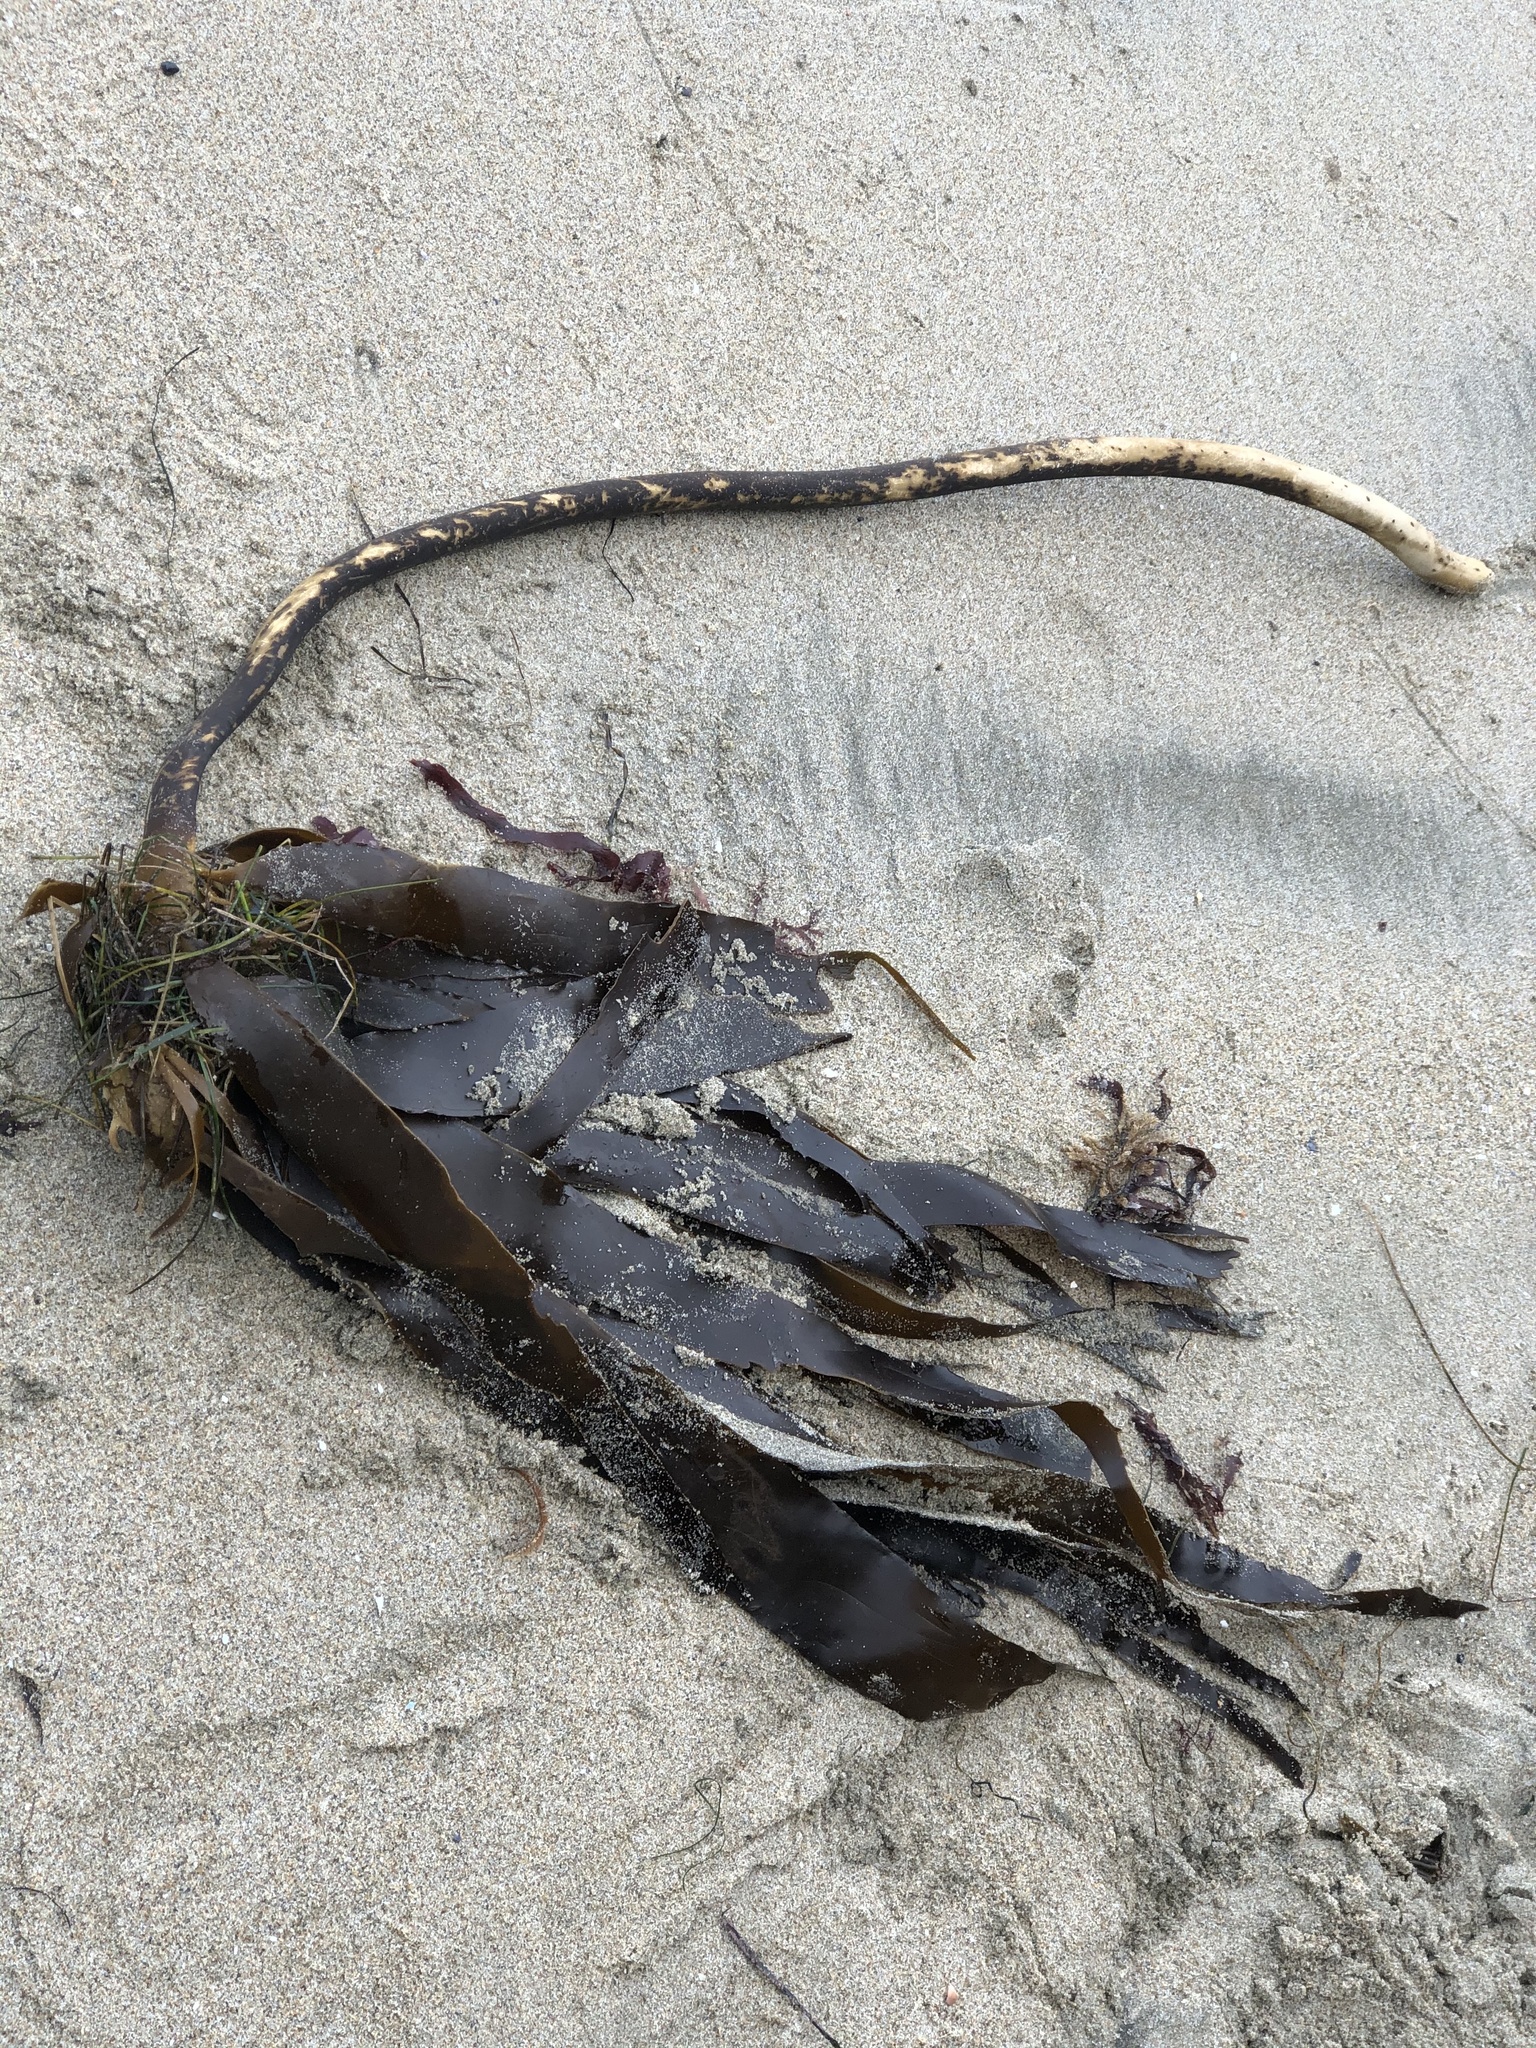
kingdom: Chromista
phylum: Ochrophyta
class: Phaeophyceae
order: Laminariales
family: Alariaceae
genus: Pterygophora
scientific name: Pterygophora californica
